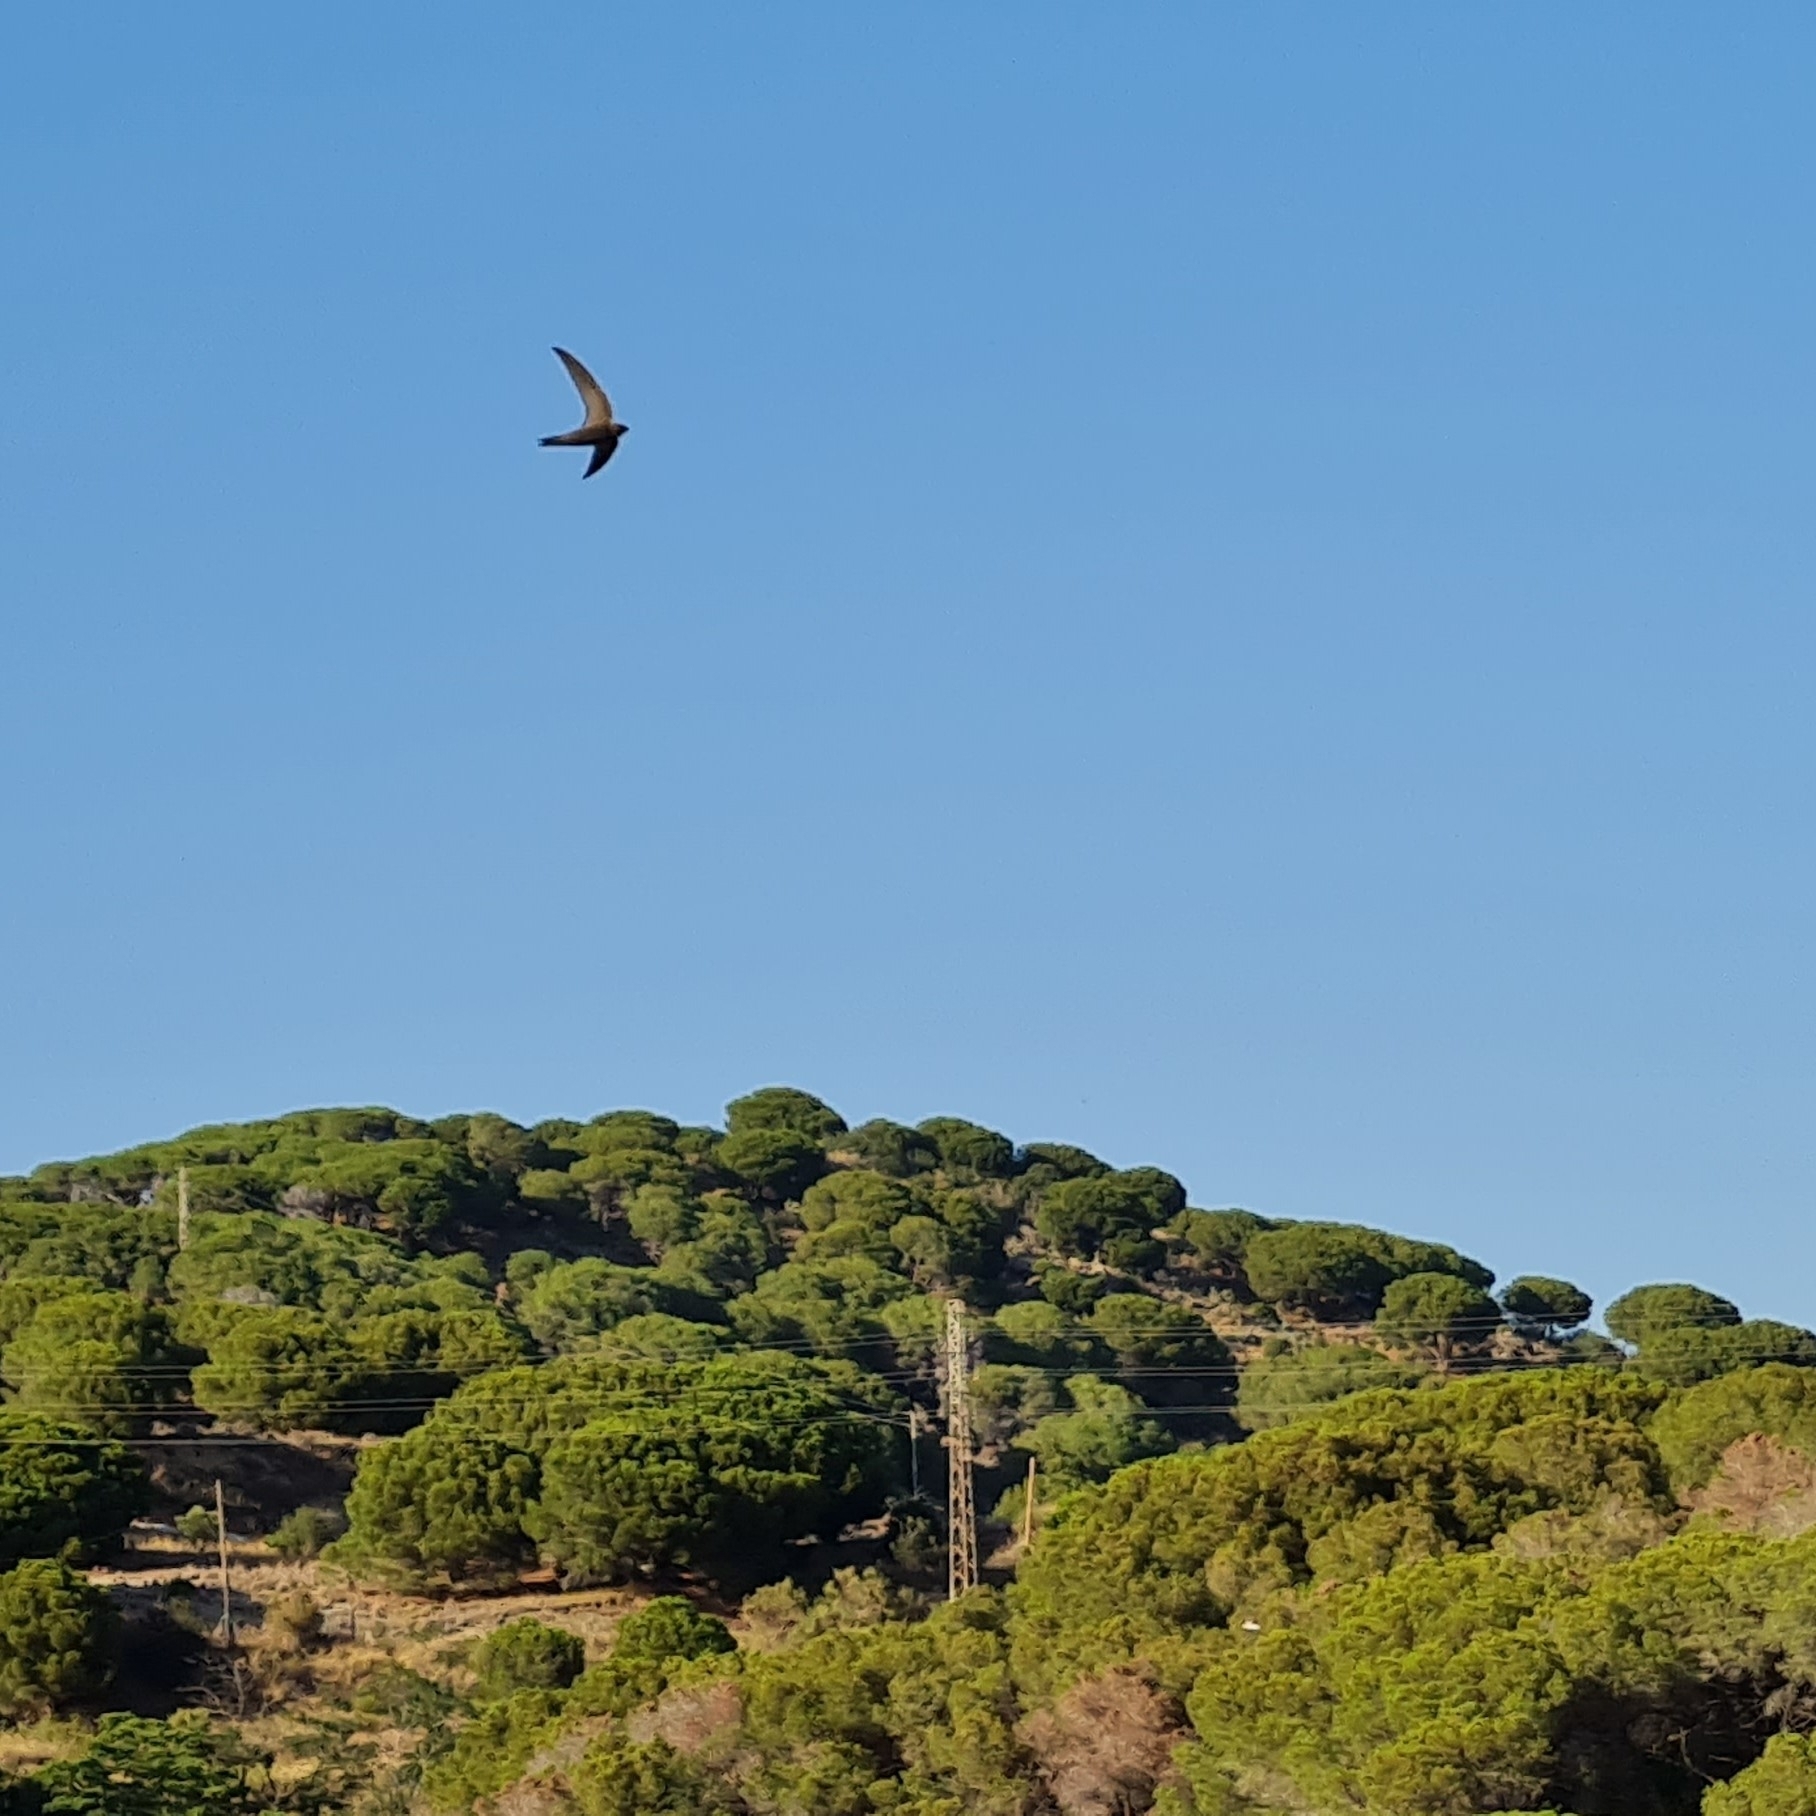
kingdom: Animalia
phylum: Chordata
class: Aves
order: Apodiformes
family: Apodidae
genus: Apus
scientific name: Apus apus
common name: Common swift
